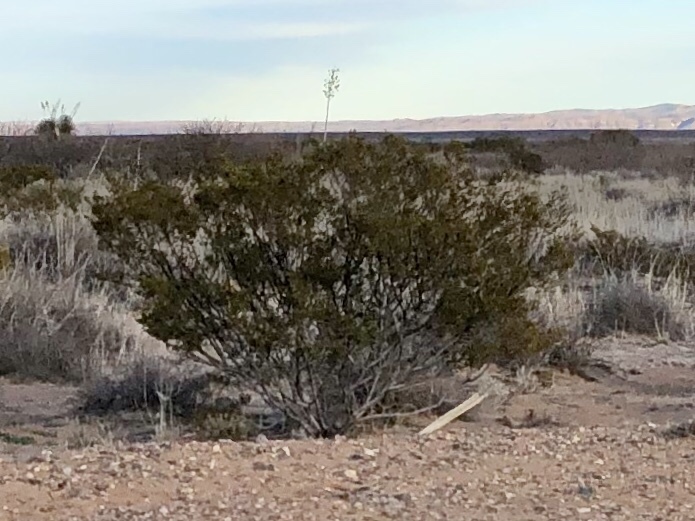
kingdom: Plantae
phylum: Tracheophyta
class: Magnoliopsida
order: Zygophyllales
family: Zygophyllaceae
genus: Larrea
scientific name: Larrea tridentata
